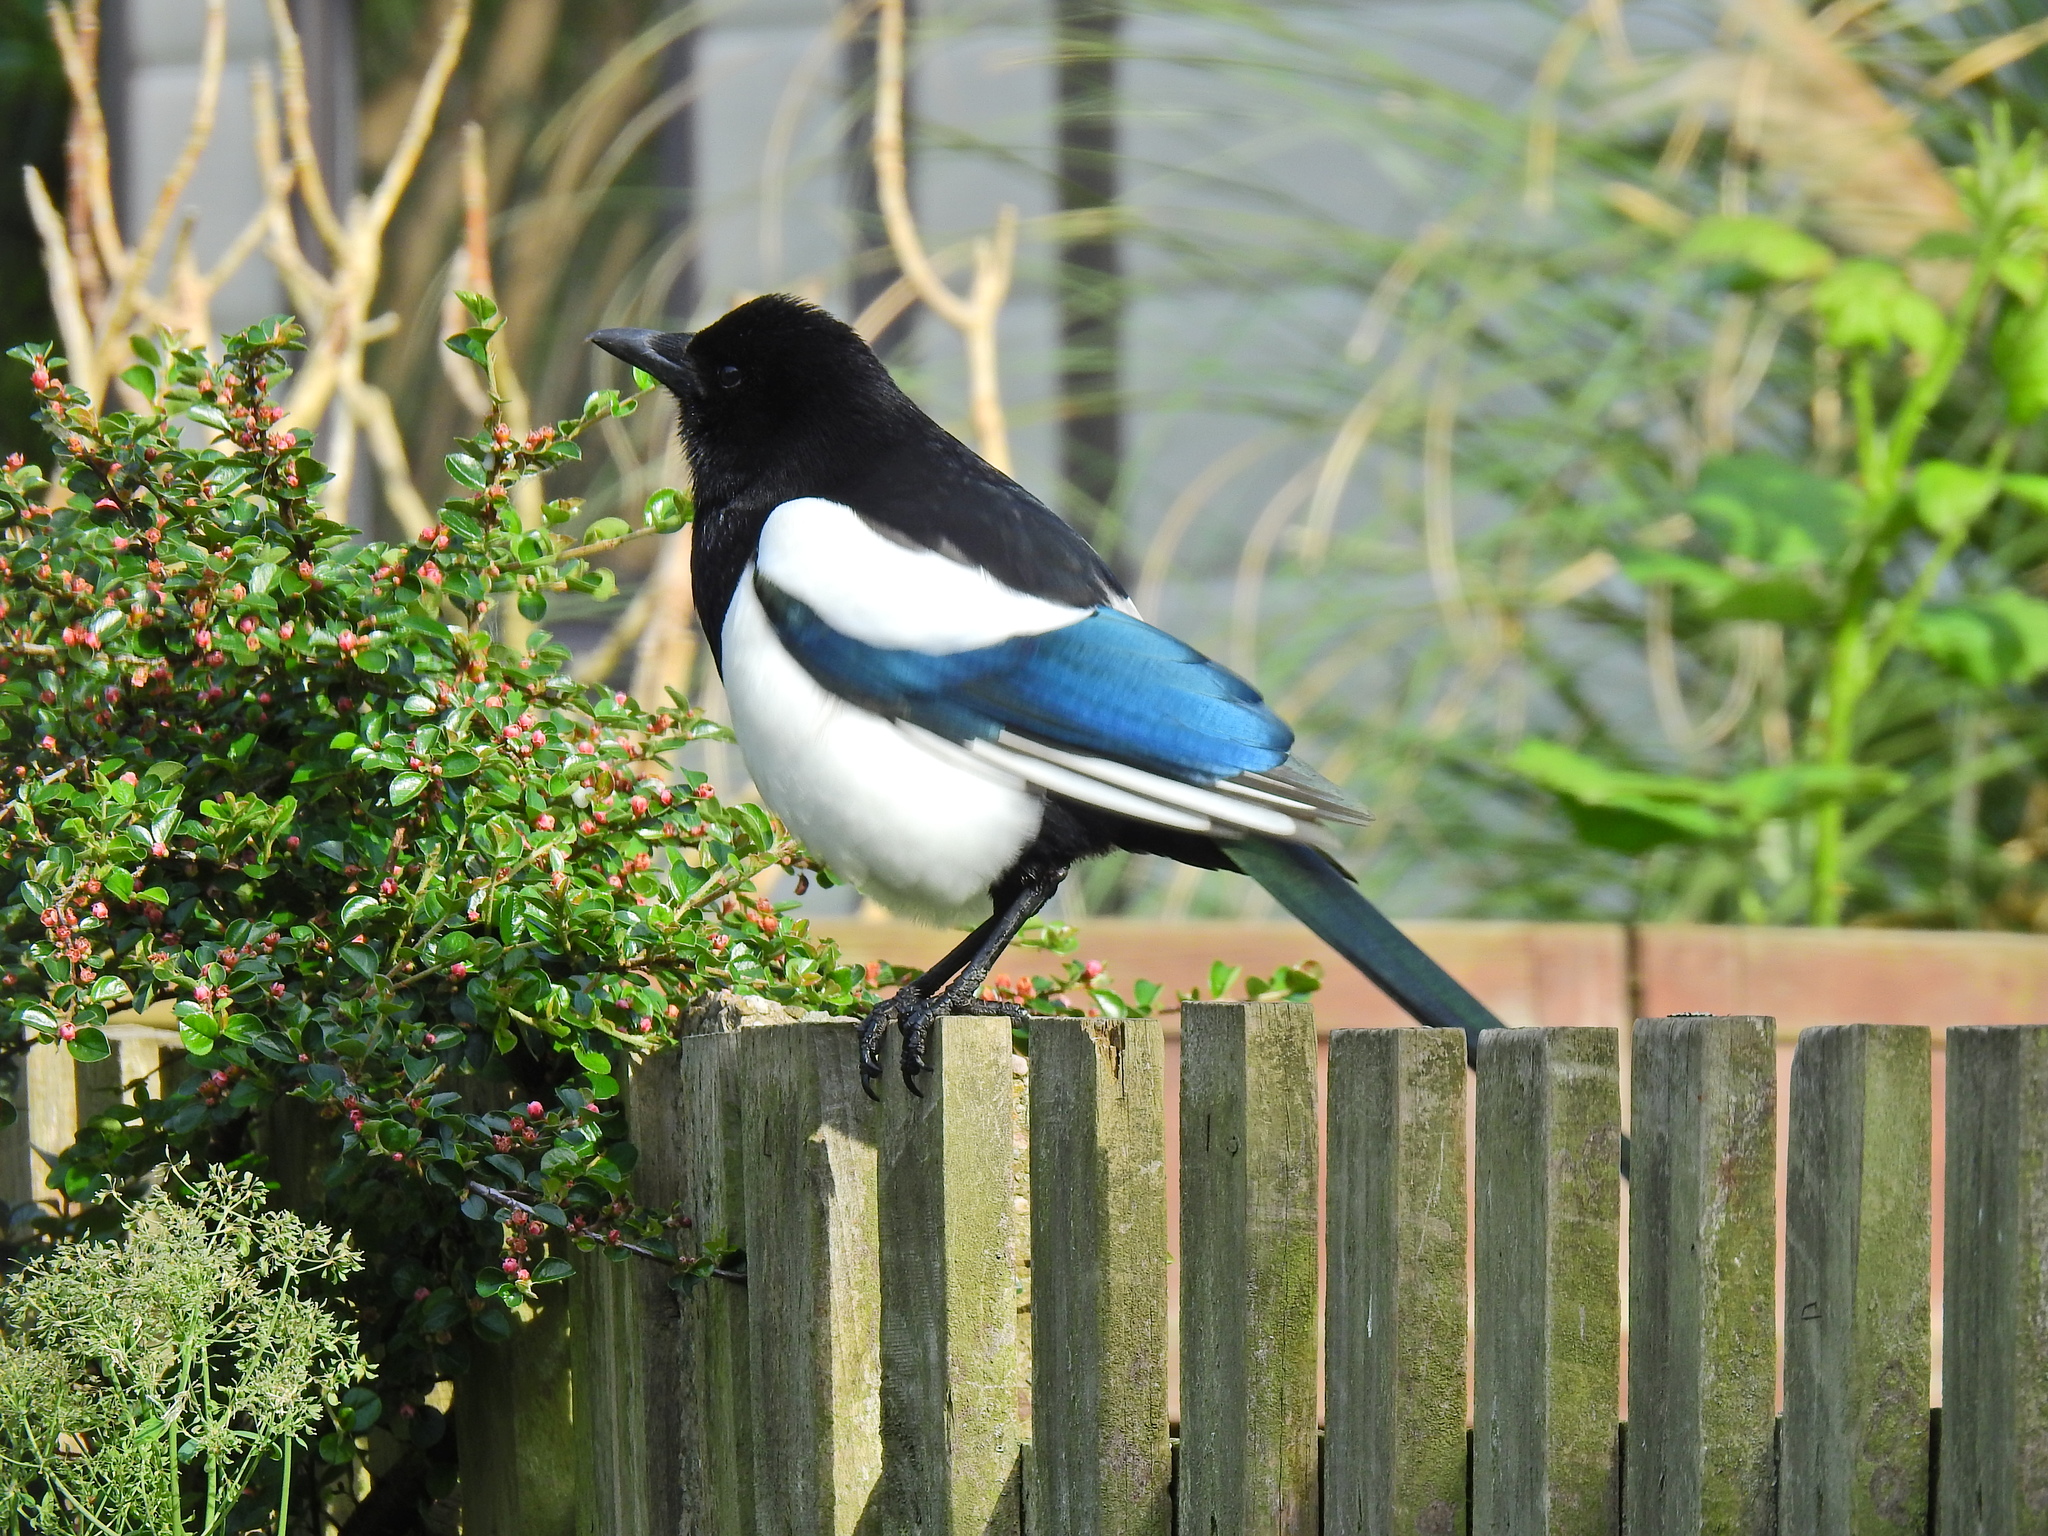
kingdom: Animalia
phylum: Chordata
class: Aves
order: Passeriformes
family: Corvidae
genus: Pica
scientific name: Pica pica
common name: Eurasian magpie
